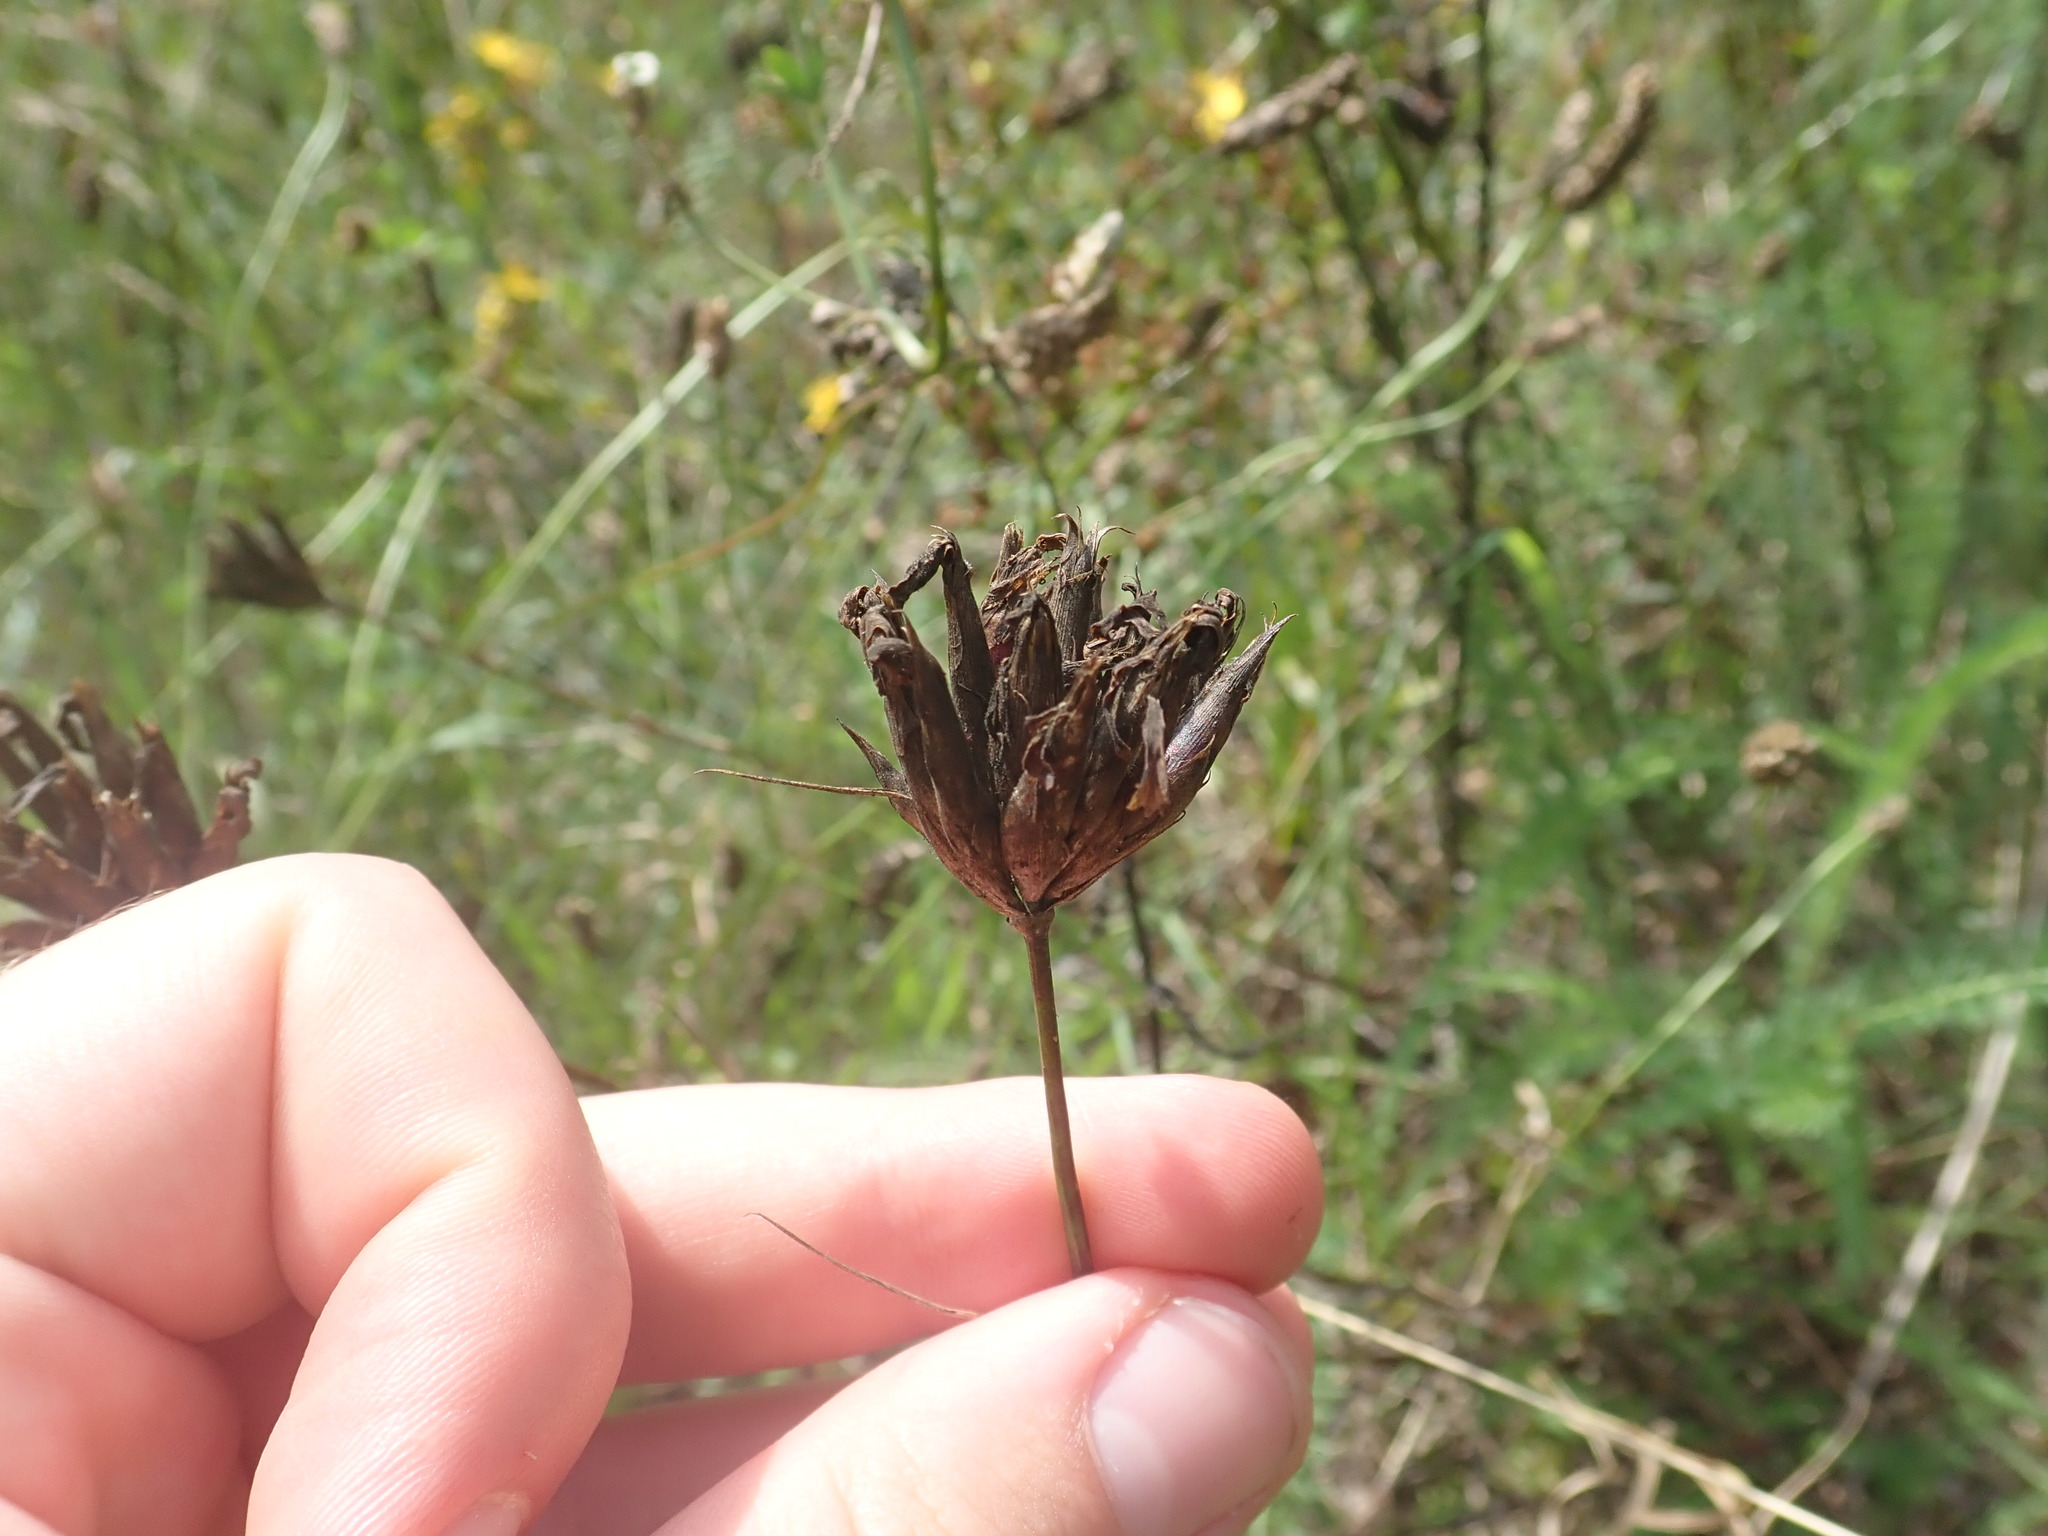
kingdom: Plantae
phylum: Tracheophyta
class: Magnoliopsida
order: Caryophyllales
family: Caryophyllaceae
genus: Dianthus
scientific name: Dianthus giganteus
